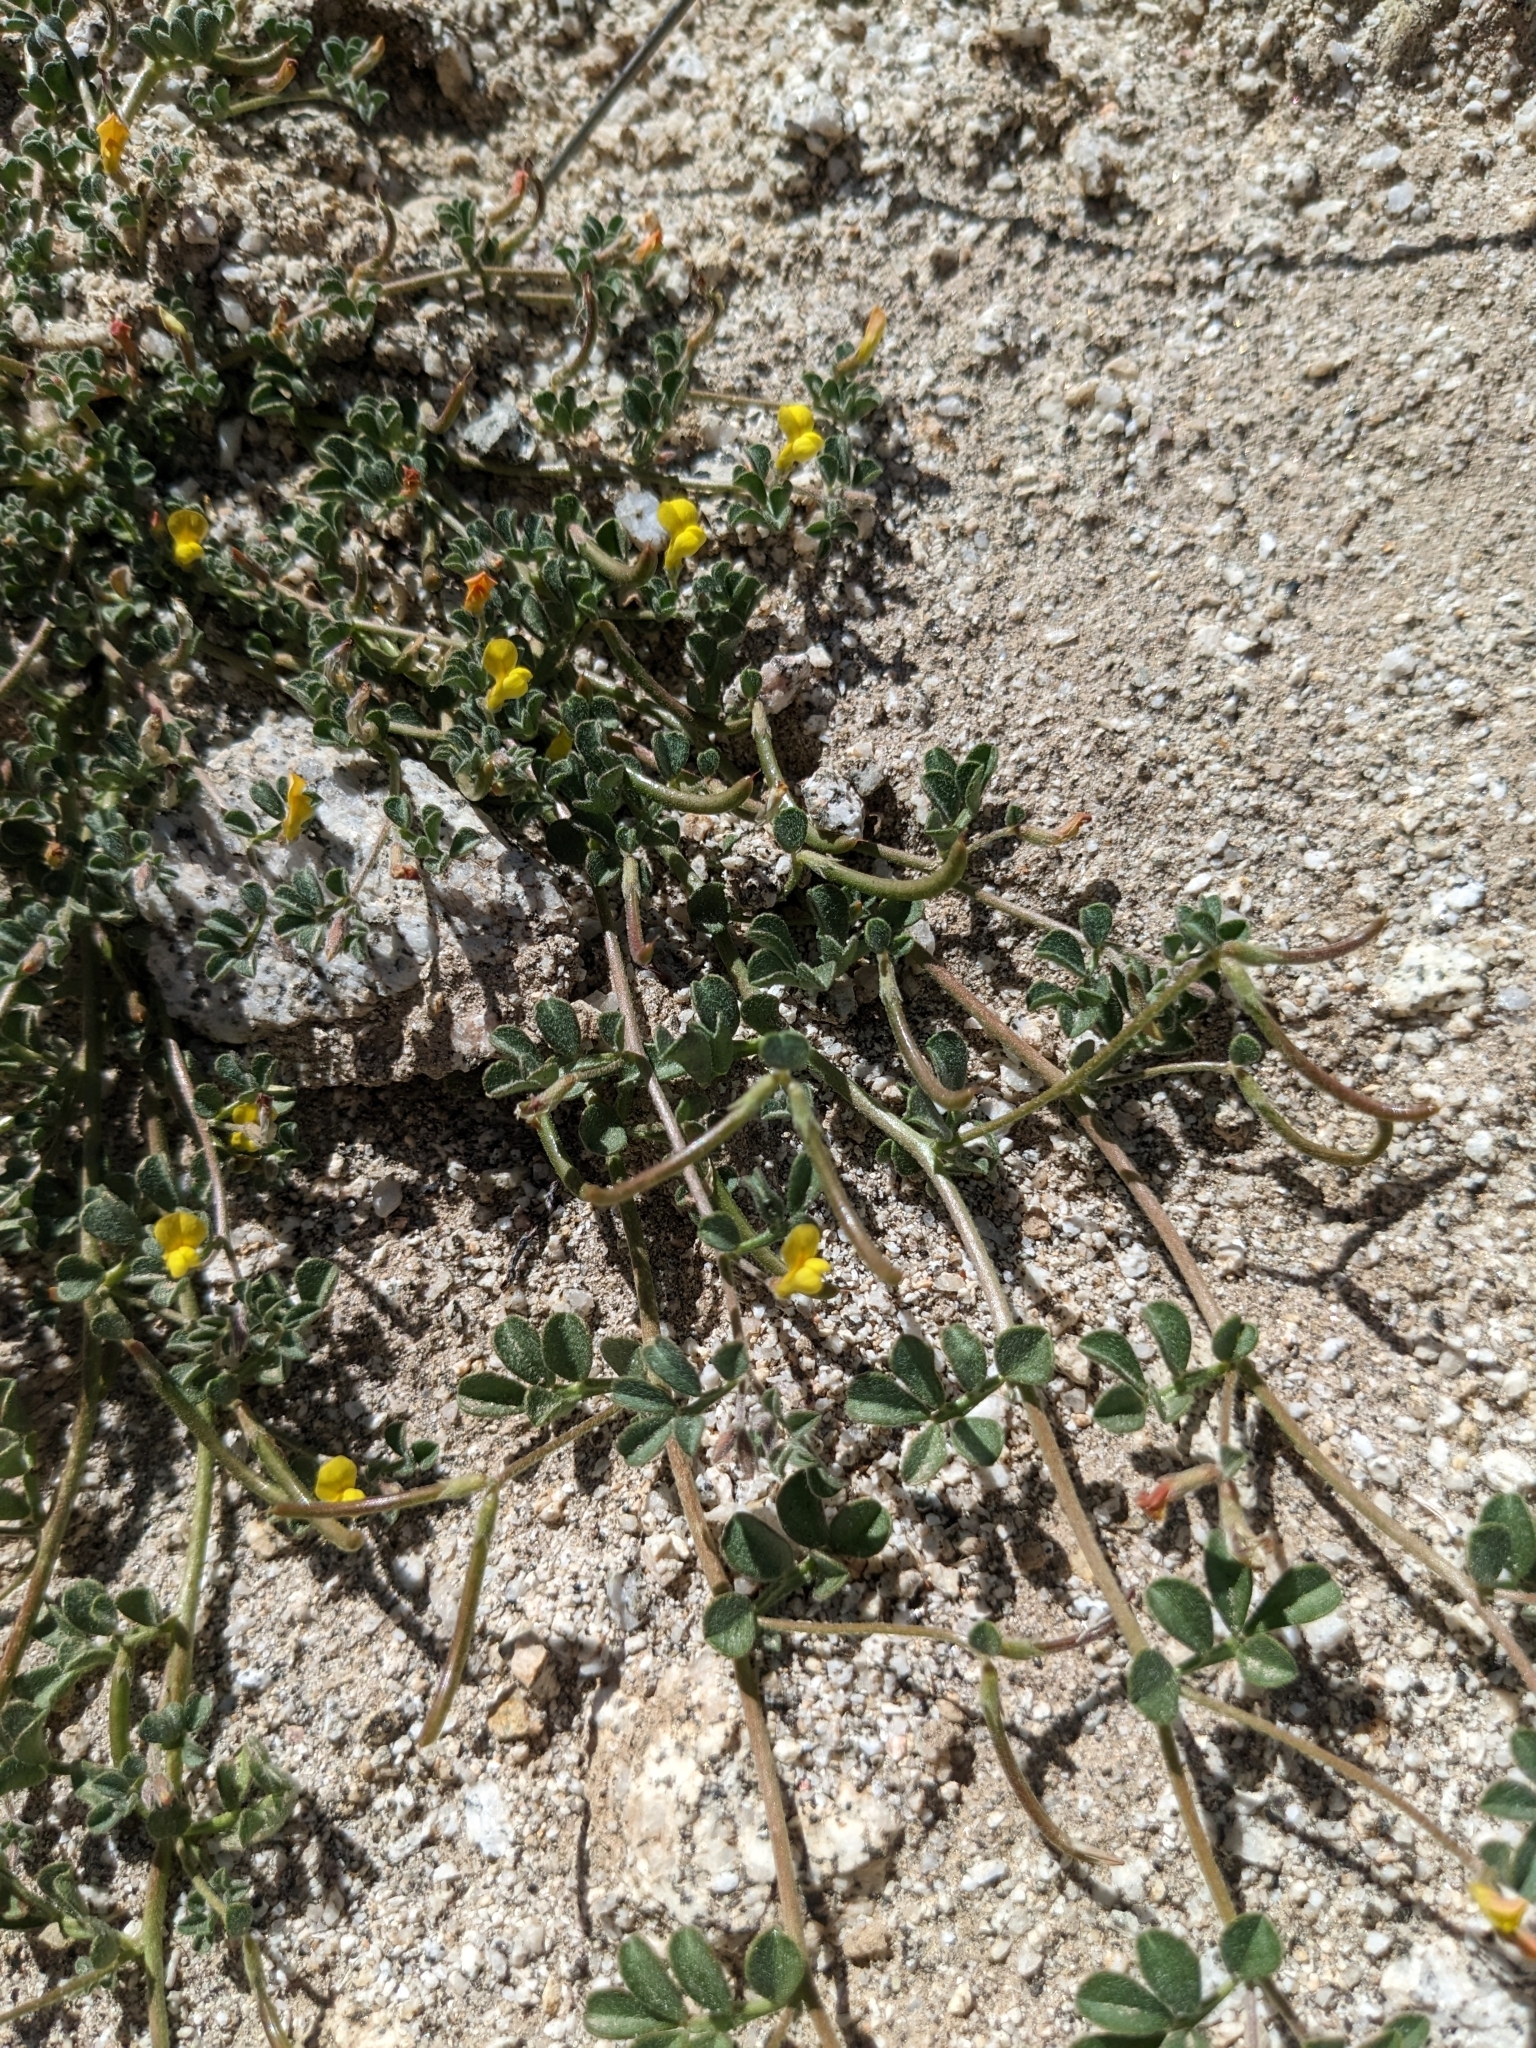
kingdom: Plantae
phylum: Tracheophyta
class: Magnoliopsida
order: Fabales
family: Fabaceae
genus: Acmispon
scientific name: Acmispon strigosus
